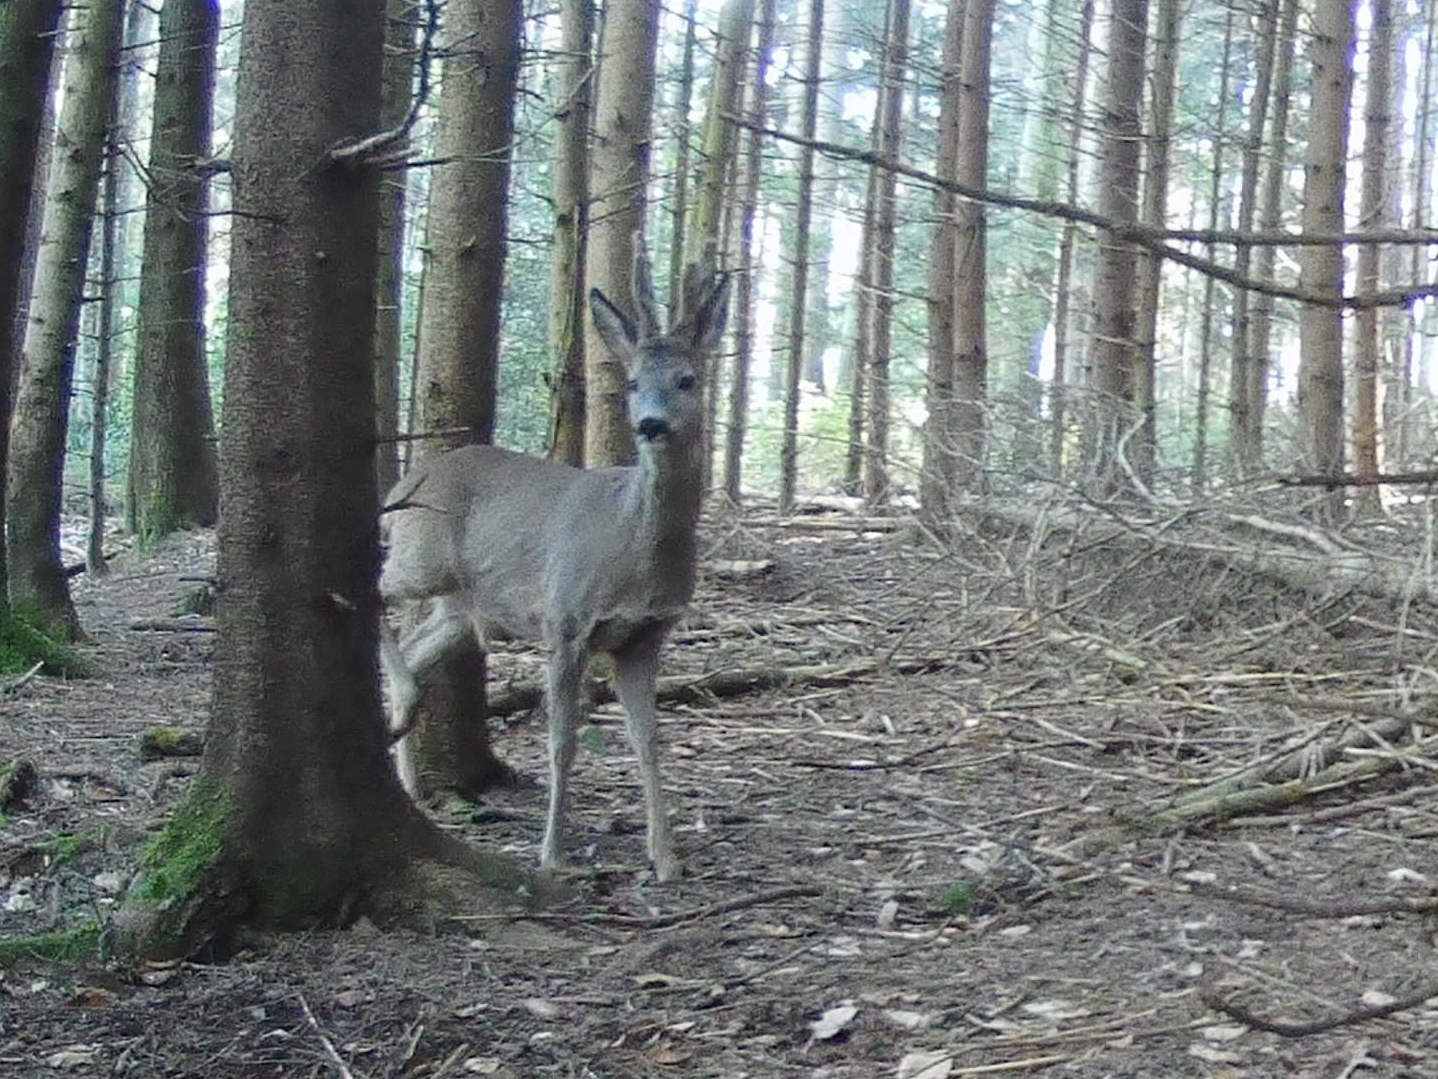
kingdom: Animalia
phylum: Chordata
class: Mammalia
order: Artiodactyla
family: Cervidae
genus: Capreolus
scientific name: Capreolus capreolus
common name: Western roe deer
